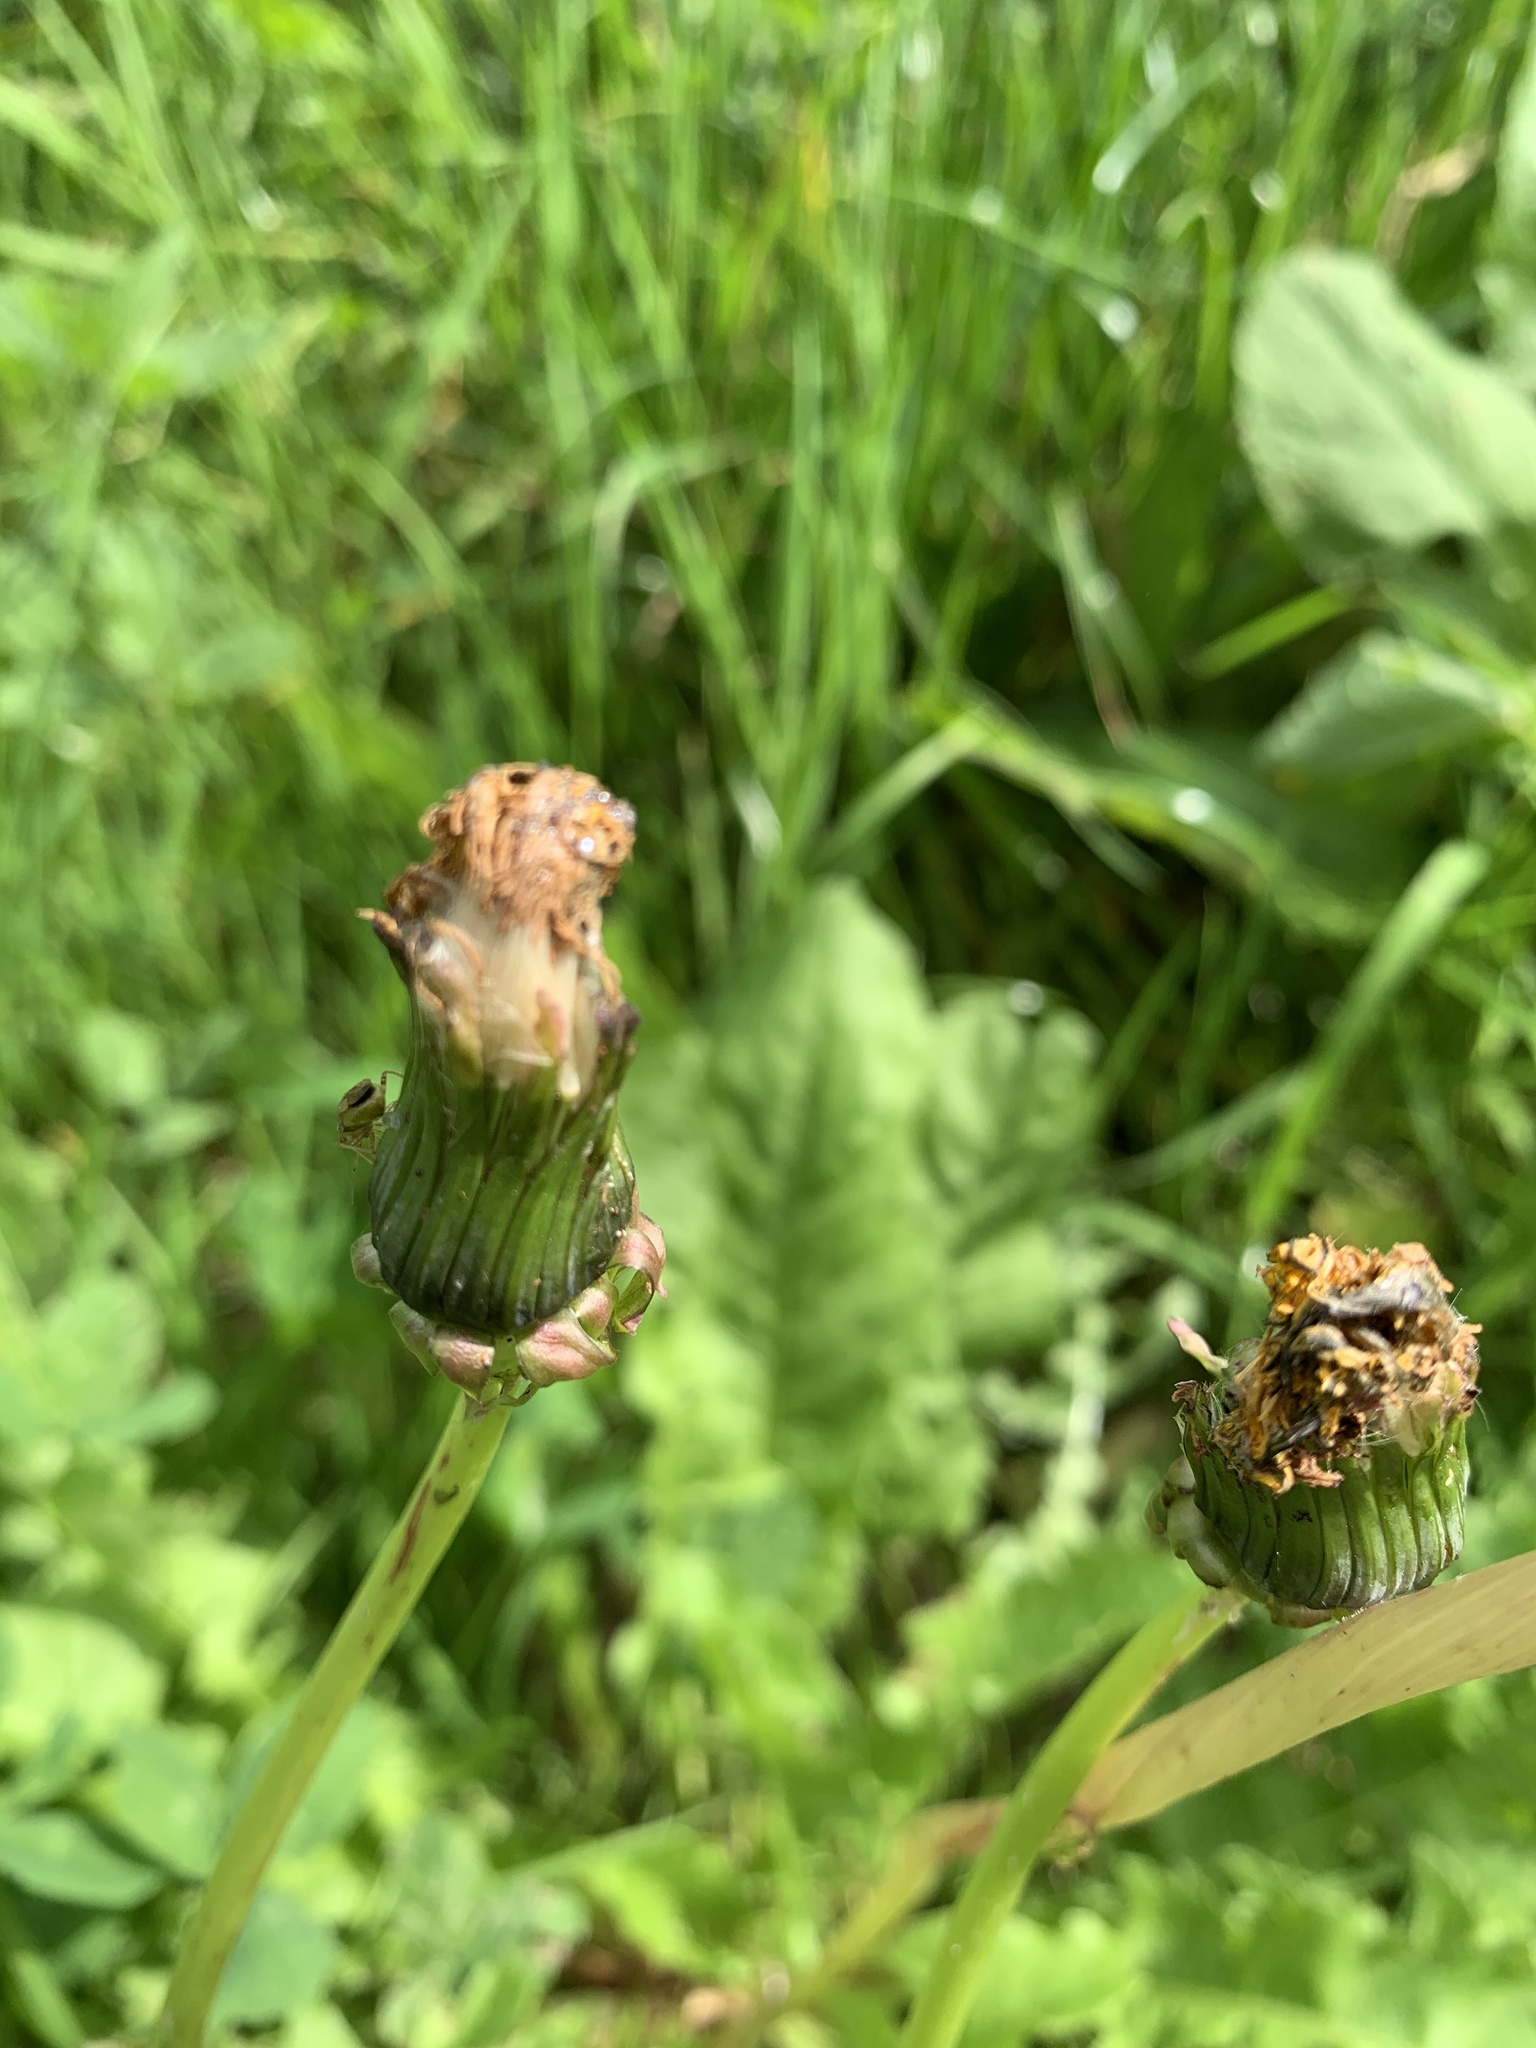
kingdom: Plantae
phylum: Tracheophyta
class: Magnoliopsida
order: Asterales
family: Asteraceae
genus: Taraxacum
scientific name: Taraxacum officinale
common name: Common dandelion
